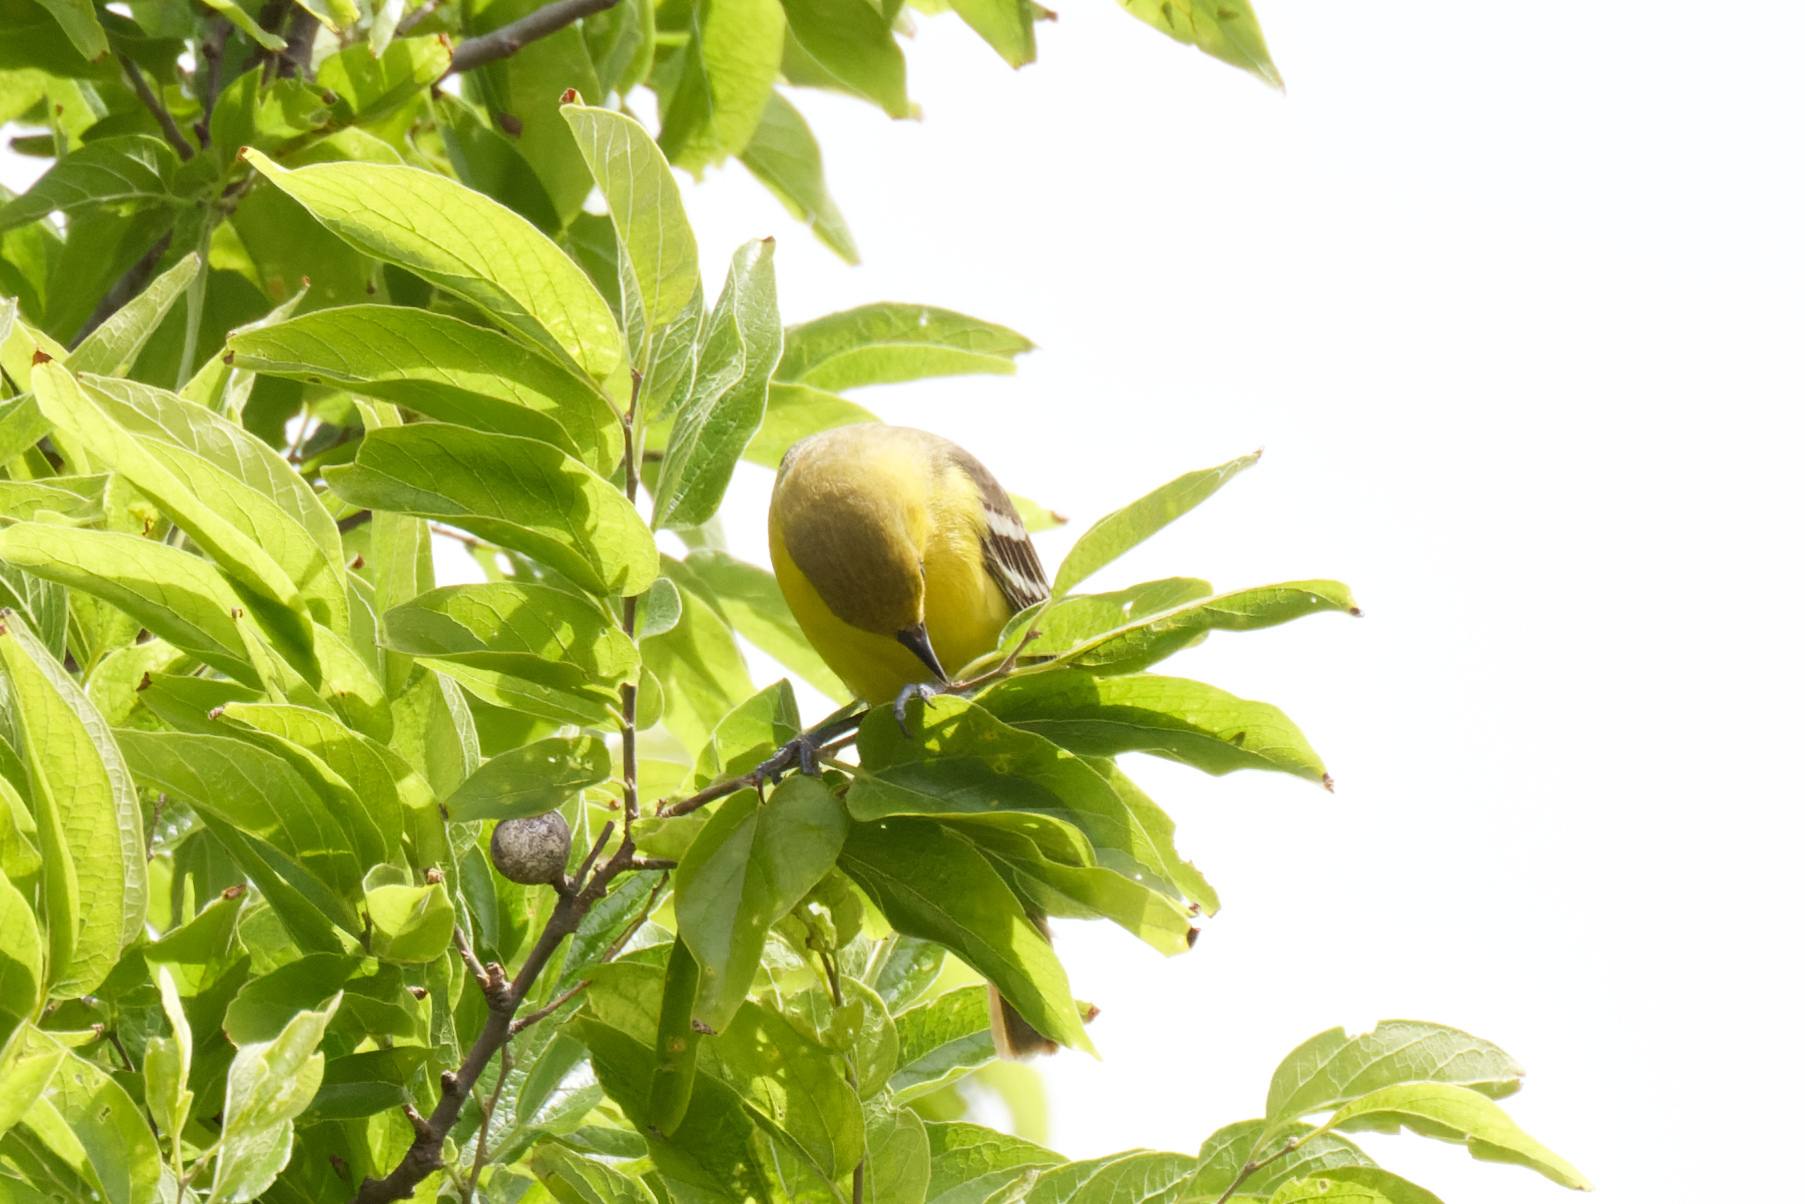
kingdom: Animalia
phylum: Chordata
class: Aves
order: Passeriformes
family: Icteridae
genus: Icterus
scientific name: Icterus spurius
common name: Orchard oriole
